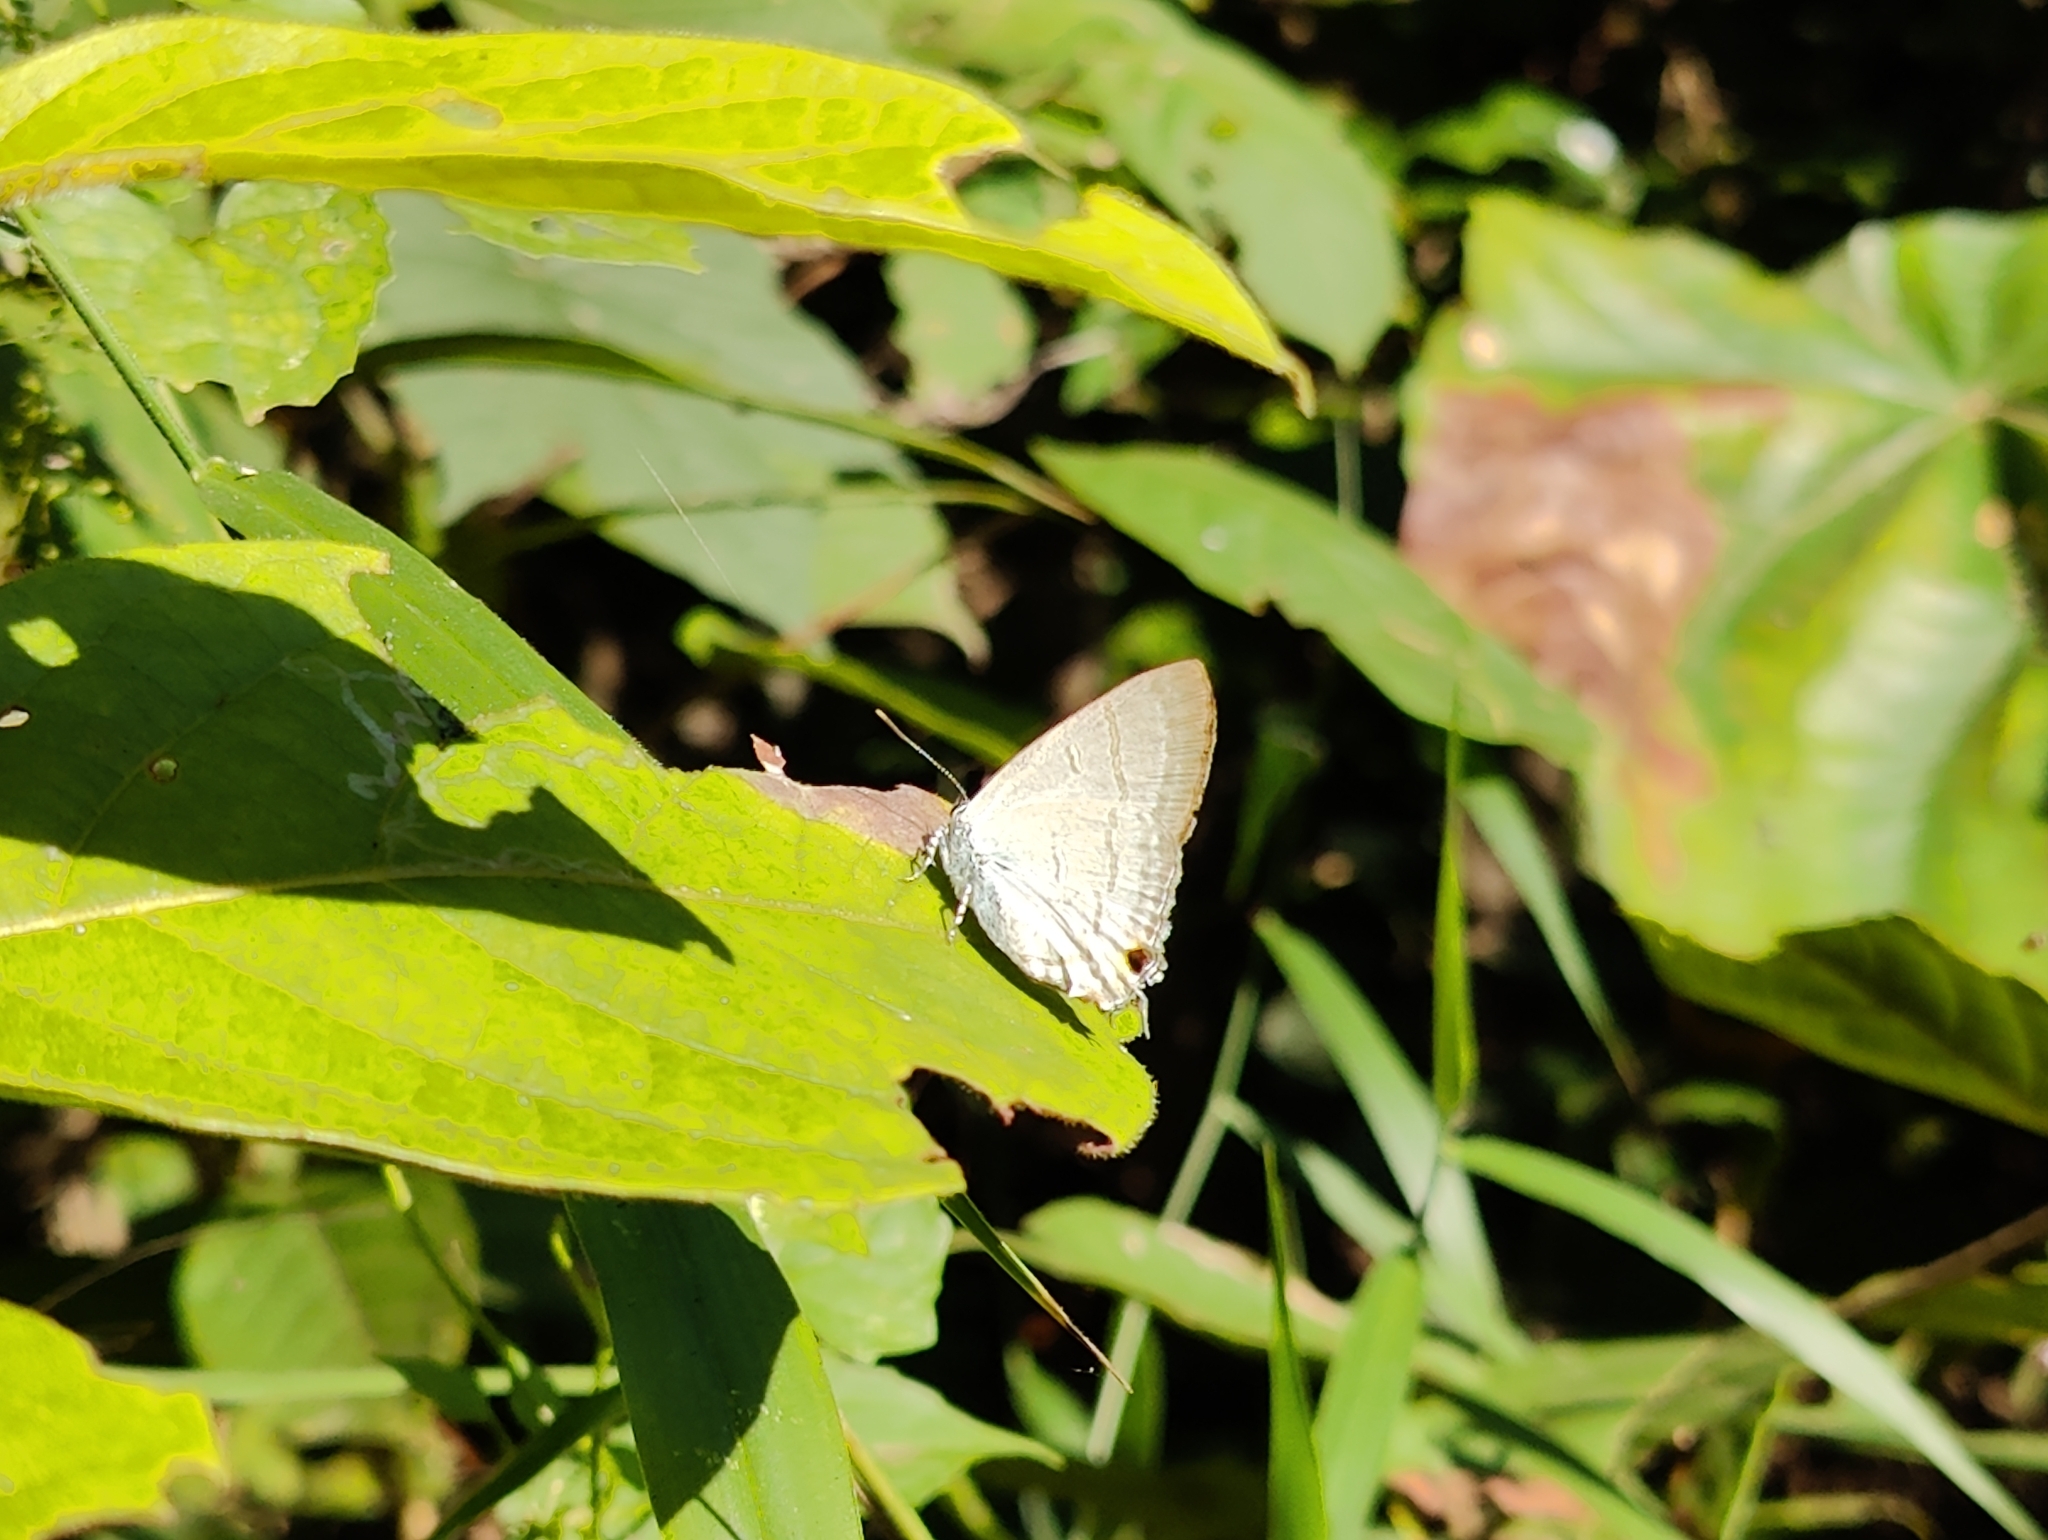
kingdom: Animalia
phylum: Arthropoda
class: Insecta
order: Lepidoptera
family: Lycaenidae
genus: Hypolycaena
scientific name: Hypolycaena erylus
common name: Common tit
